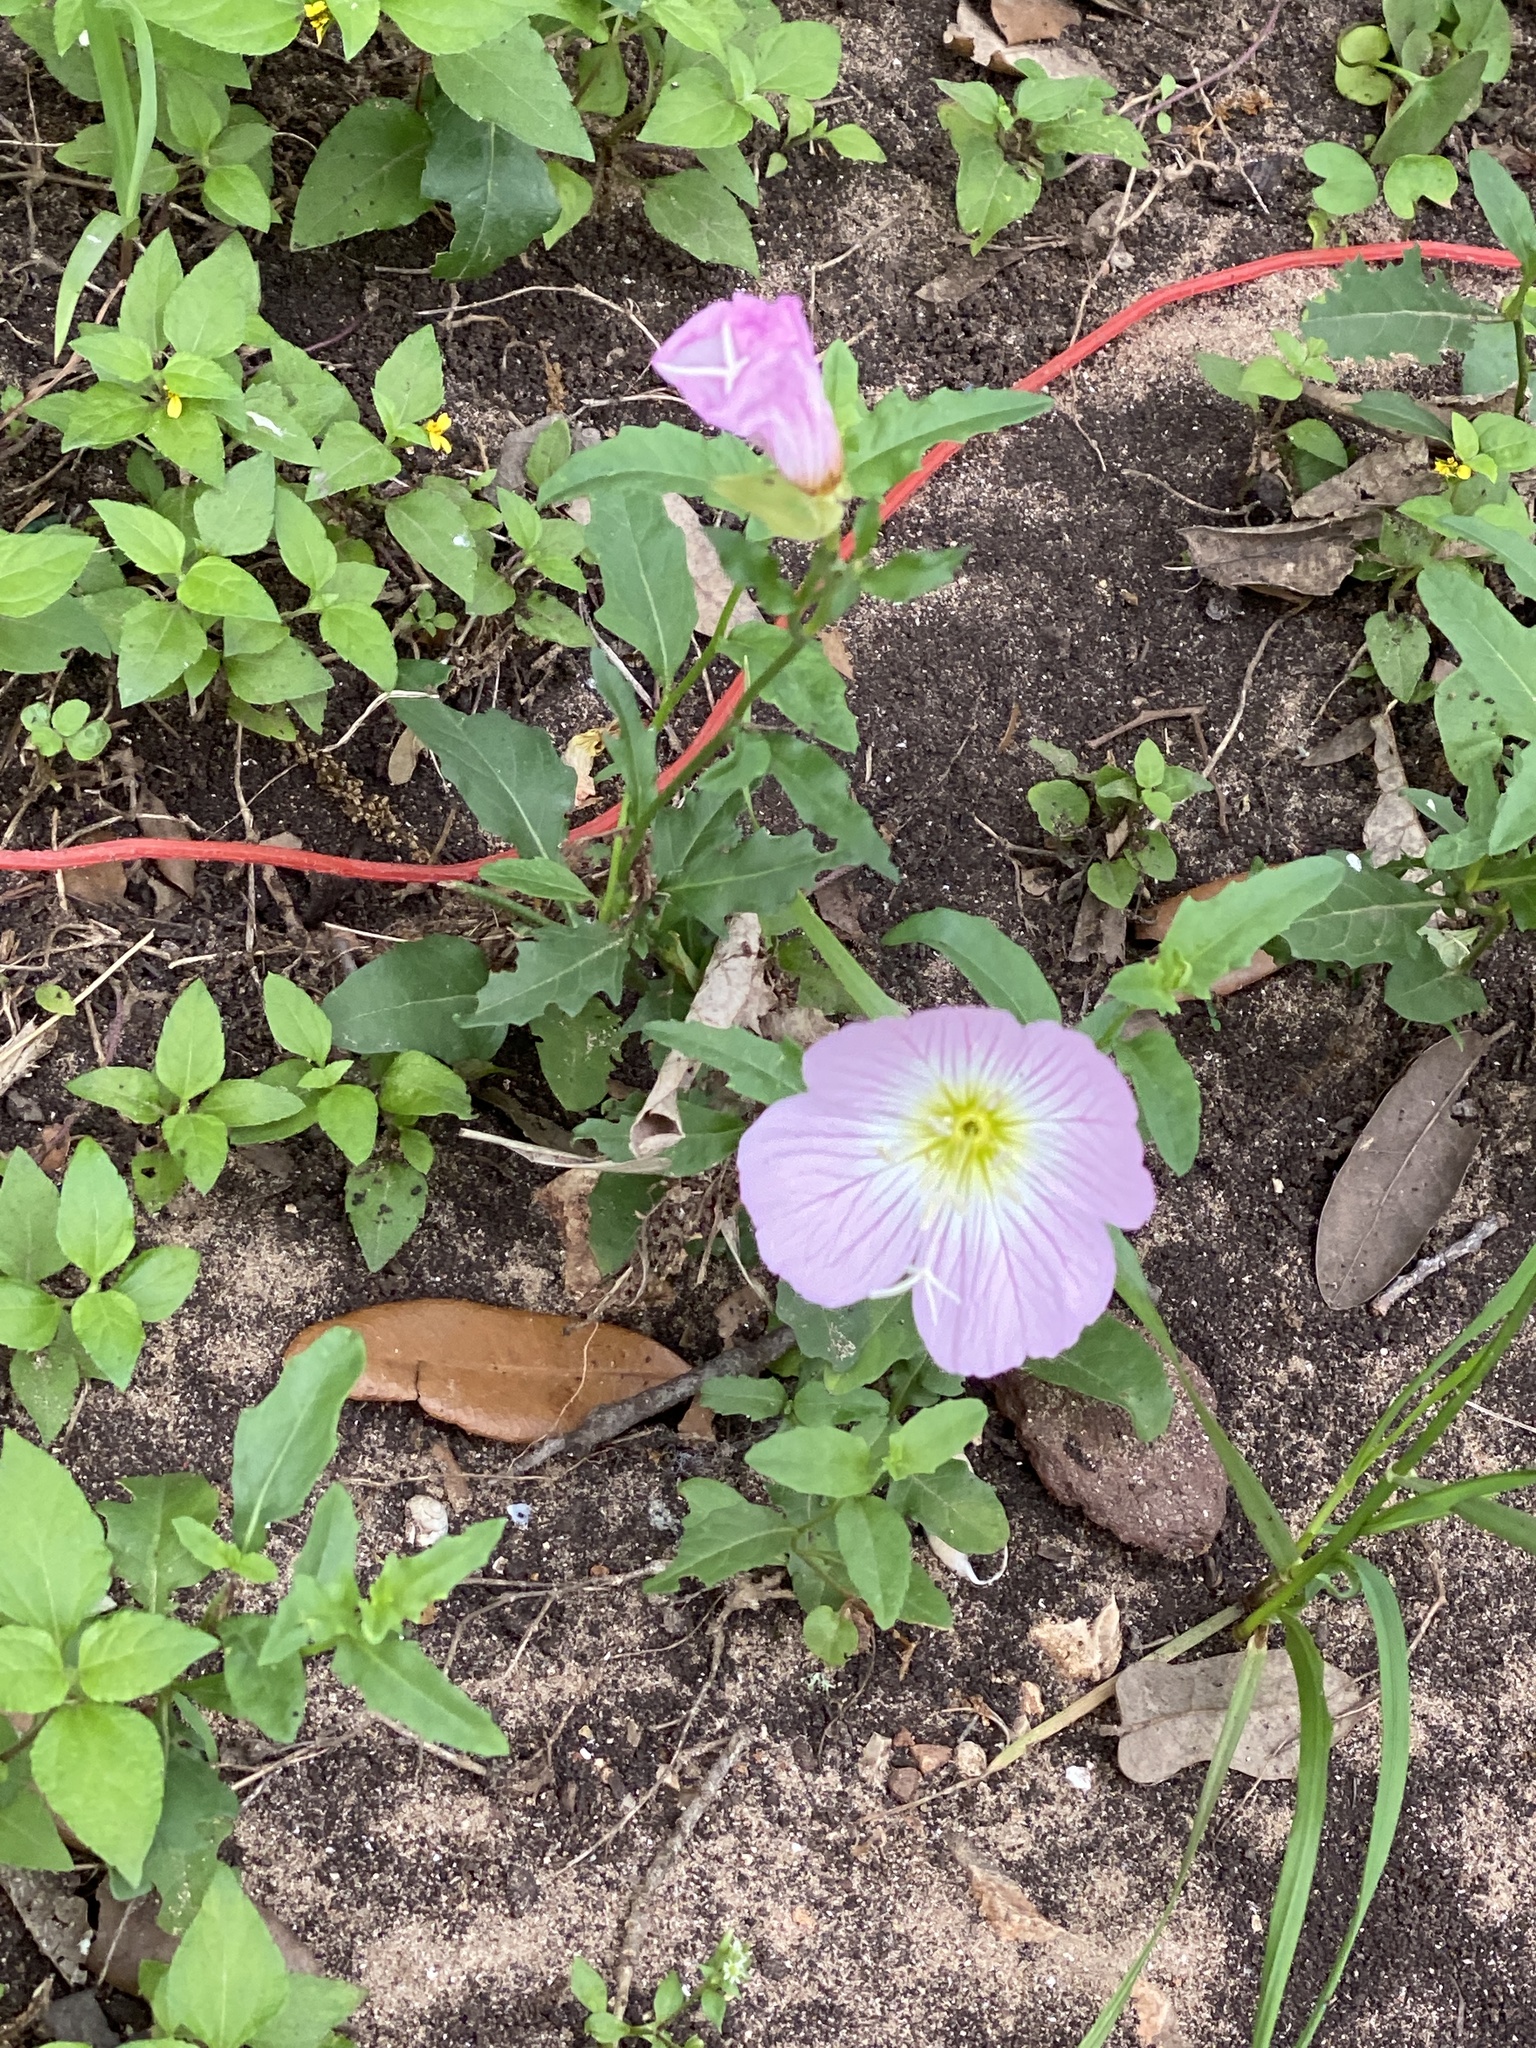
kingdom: Plantae
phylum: Tracheophyta
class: Magnoliopsida
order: Myrtales
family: Onagraceae
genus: Oenothera
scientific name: Oenothera speciosa
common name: White evening-primrose
